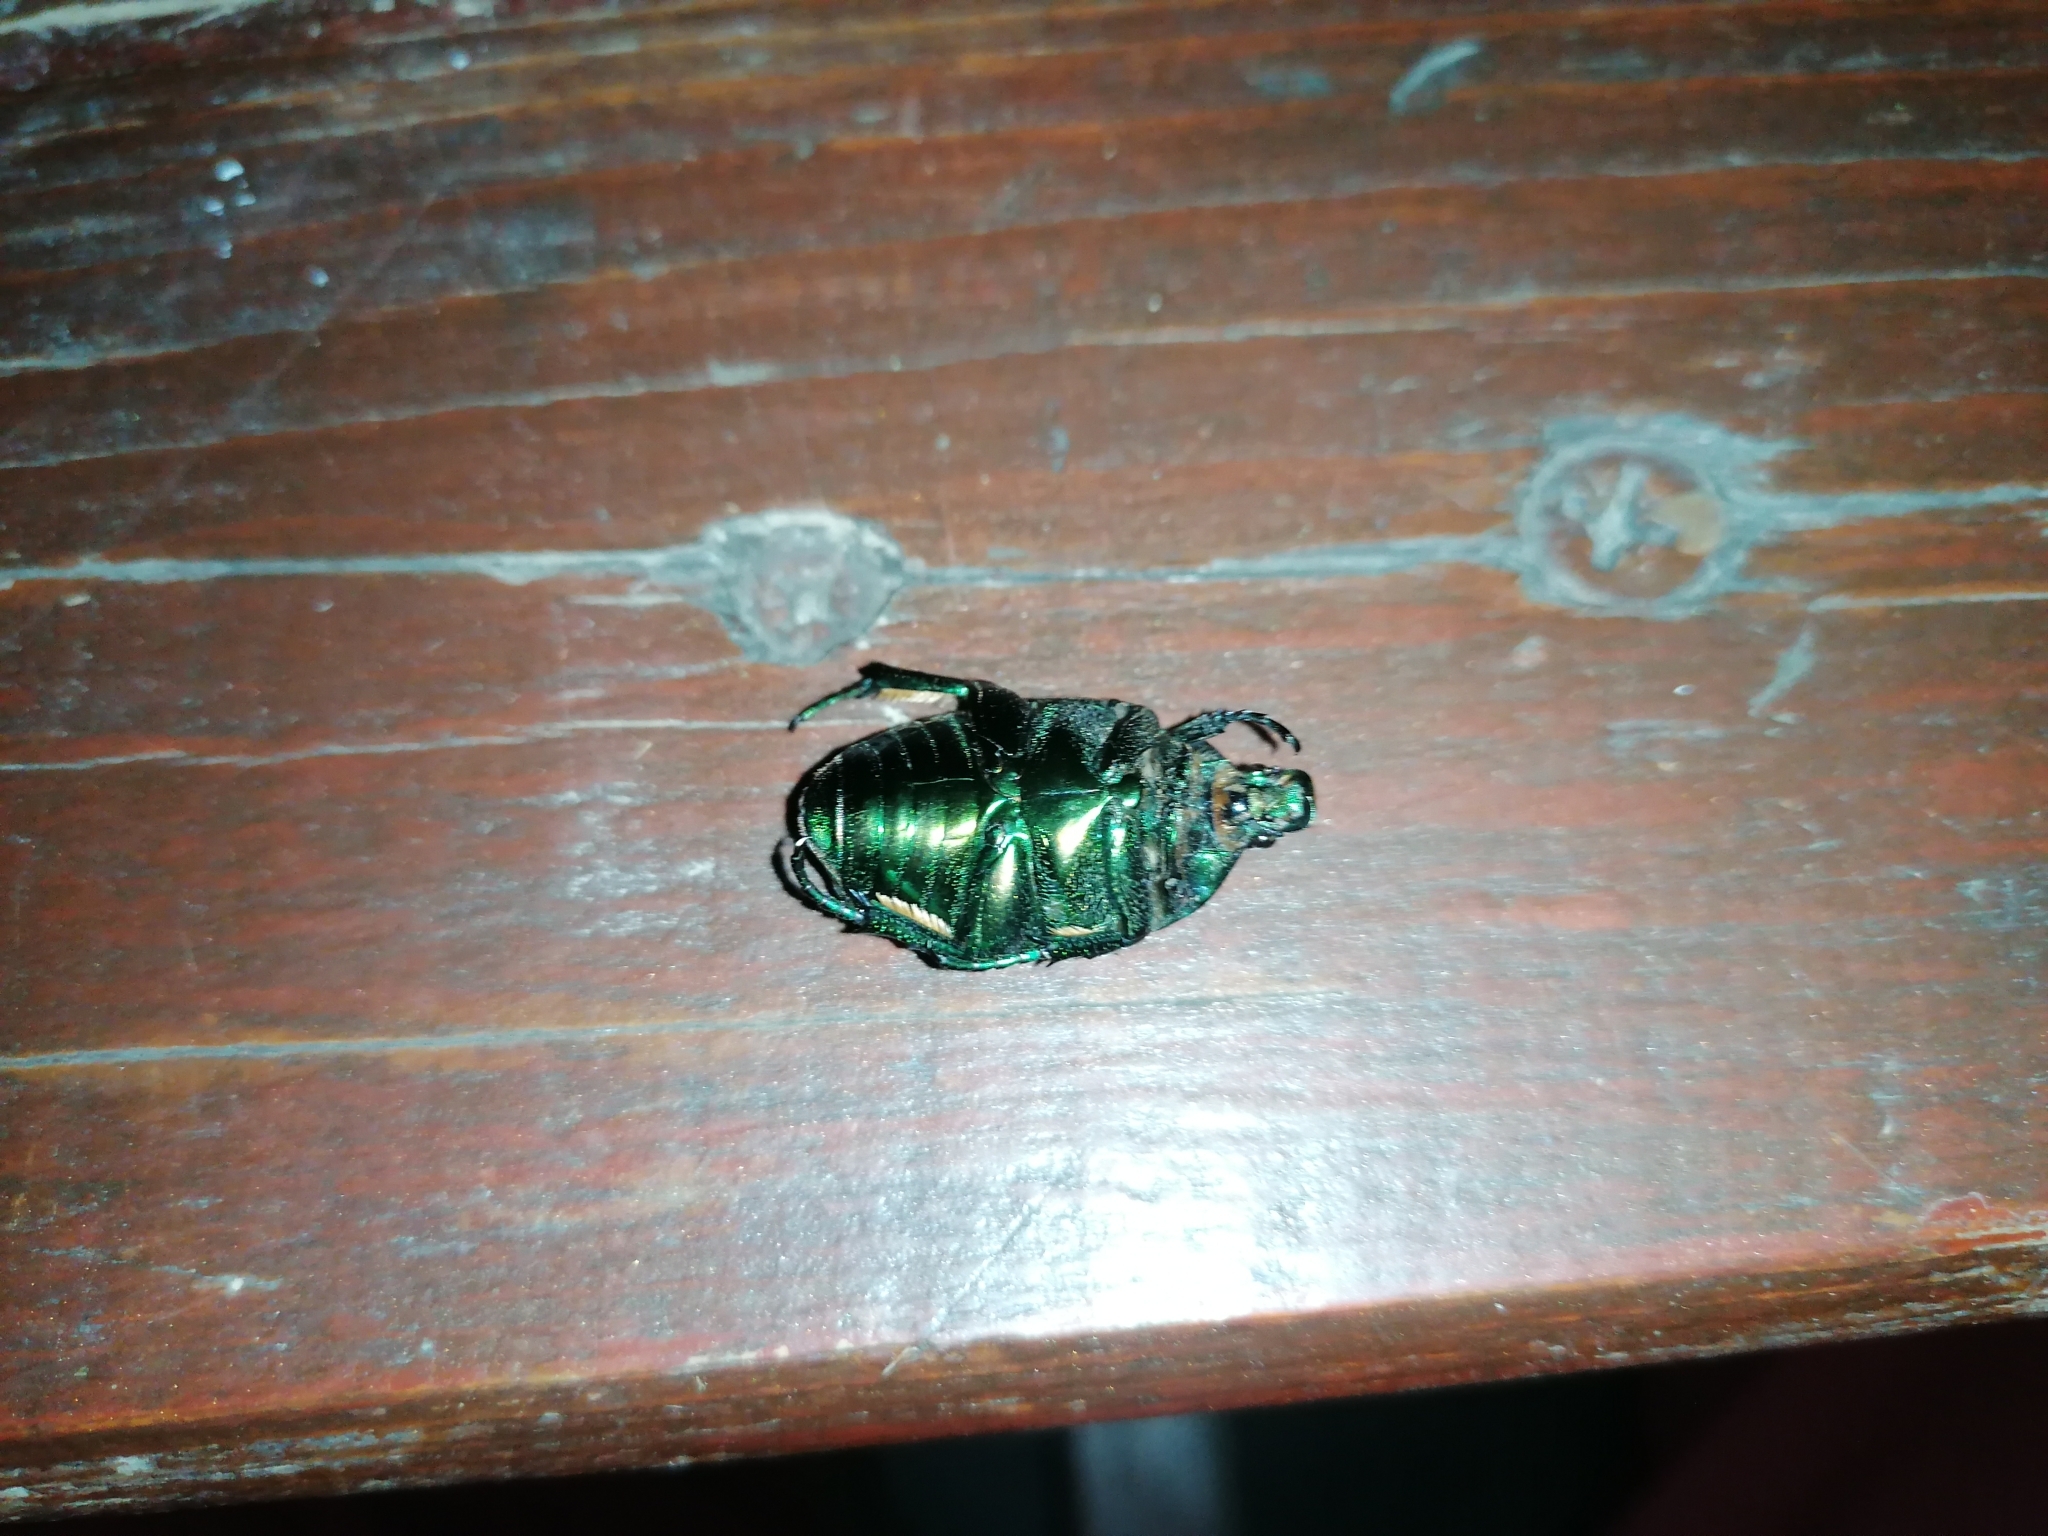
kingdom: Animalia
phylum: Arthropoda
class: Insecta
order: Coleoptera
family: Scarabaeidae
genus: Protaetia
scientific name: Protaetia speciosissima
